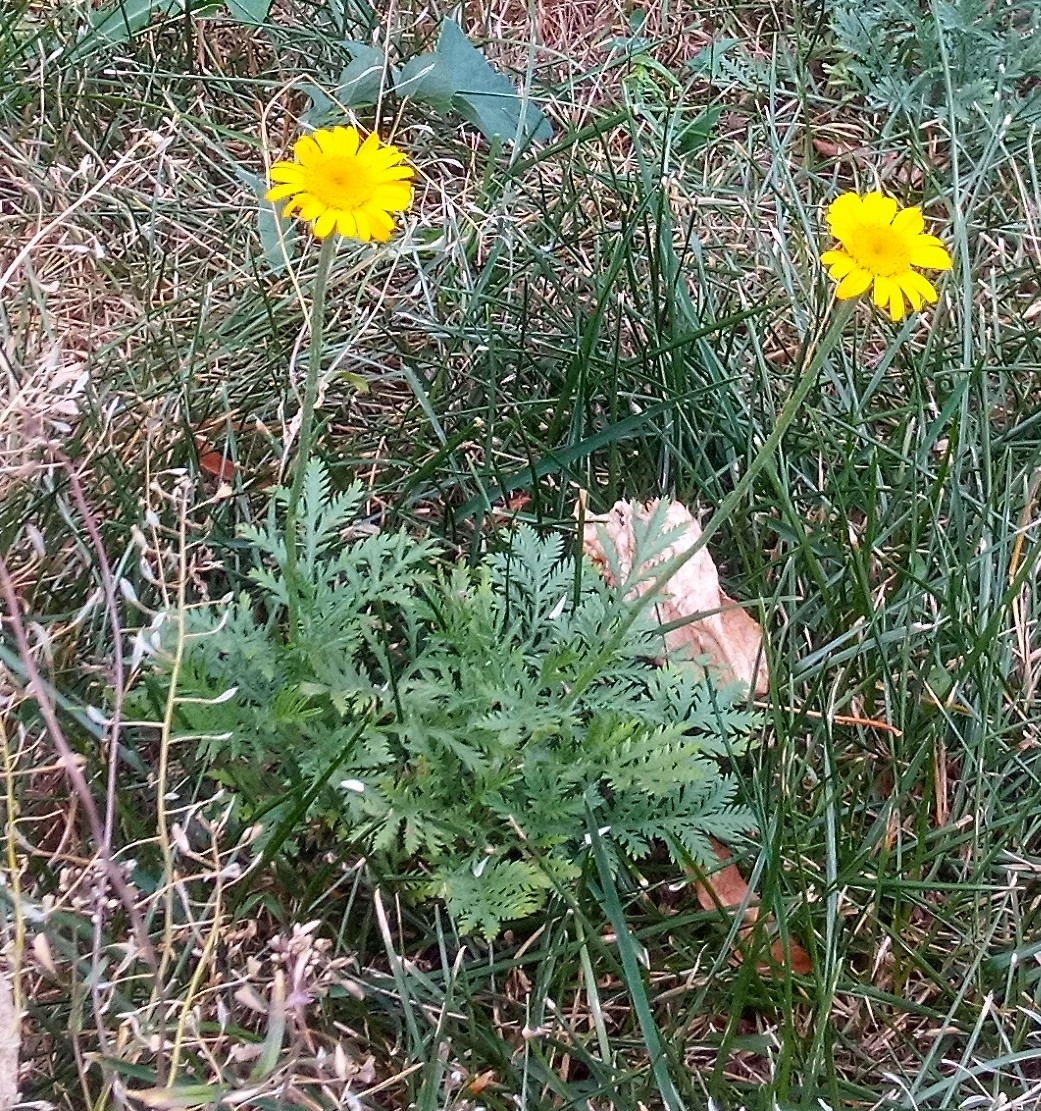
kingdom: Plantae
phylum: Tracheophyta
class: Magnoliopsida
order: Asterales
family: Asteraceae
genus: Cota
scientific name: Cota tinctoria
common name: Golden chamomile
